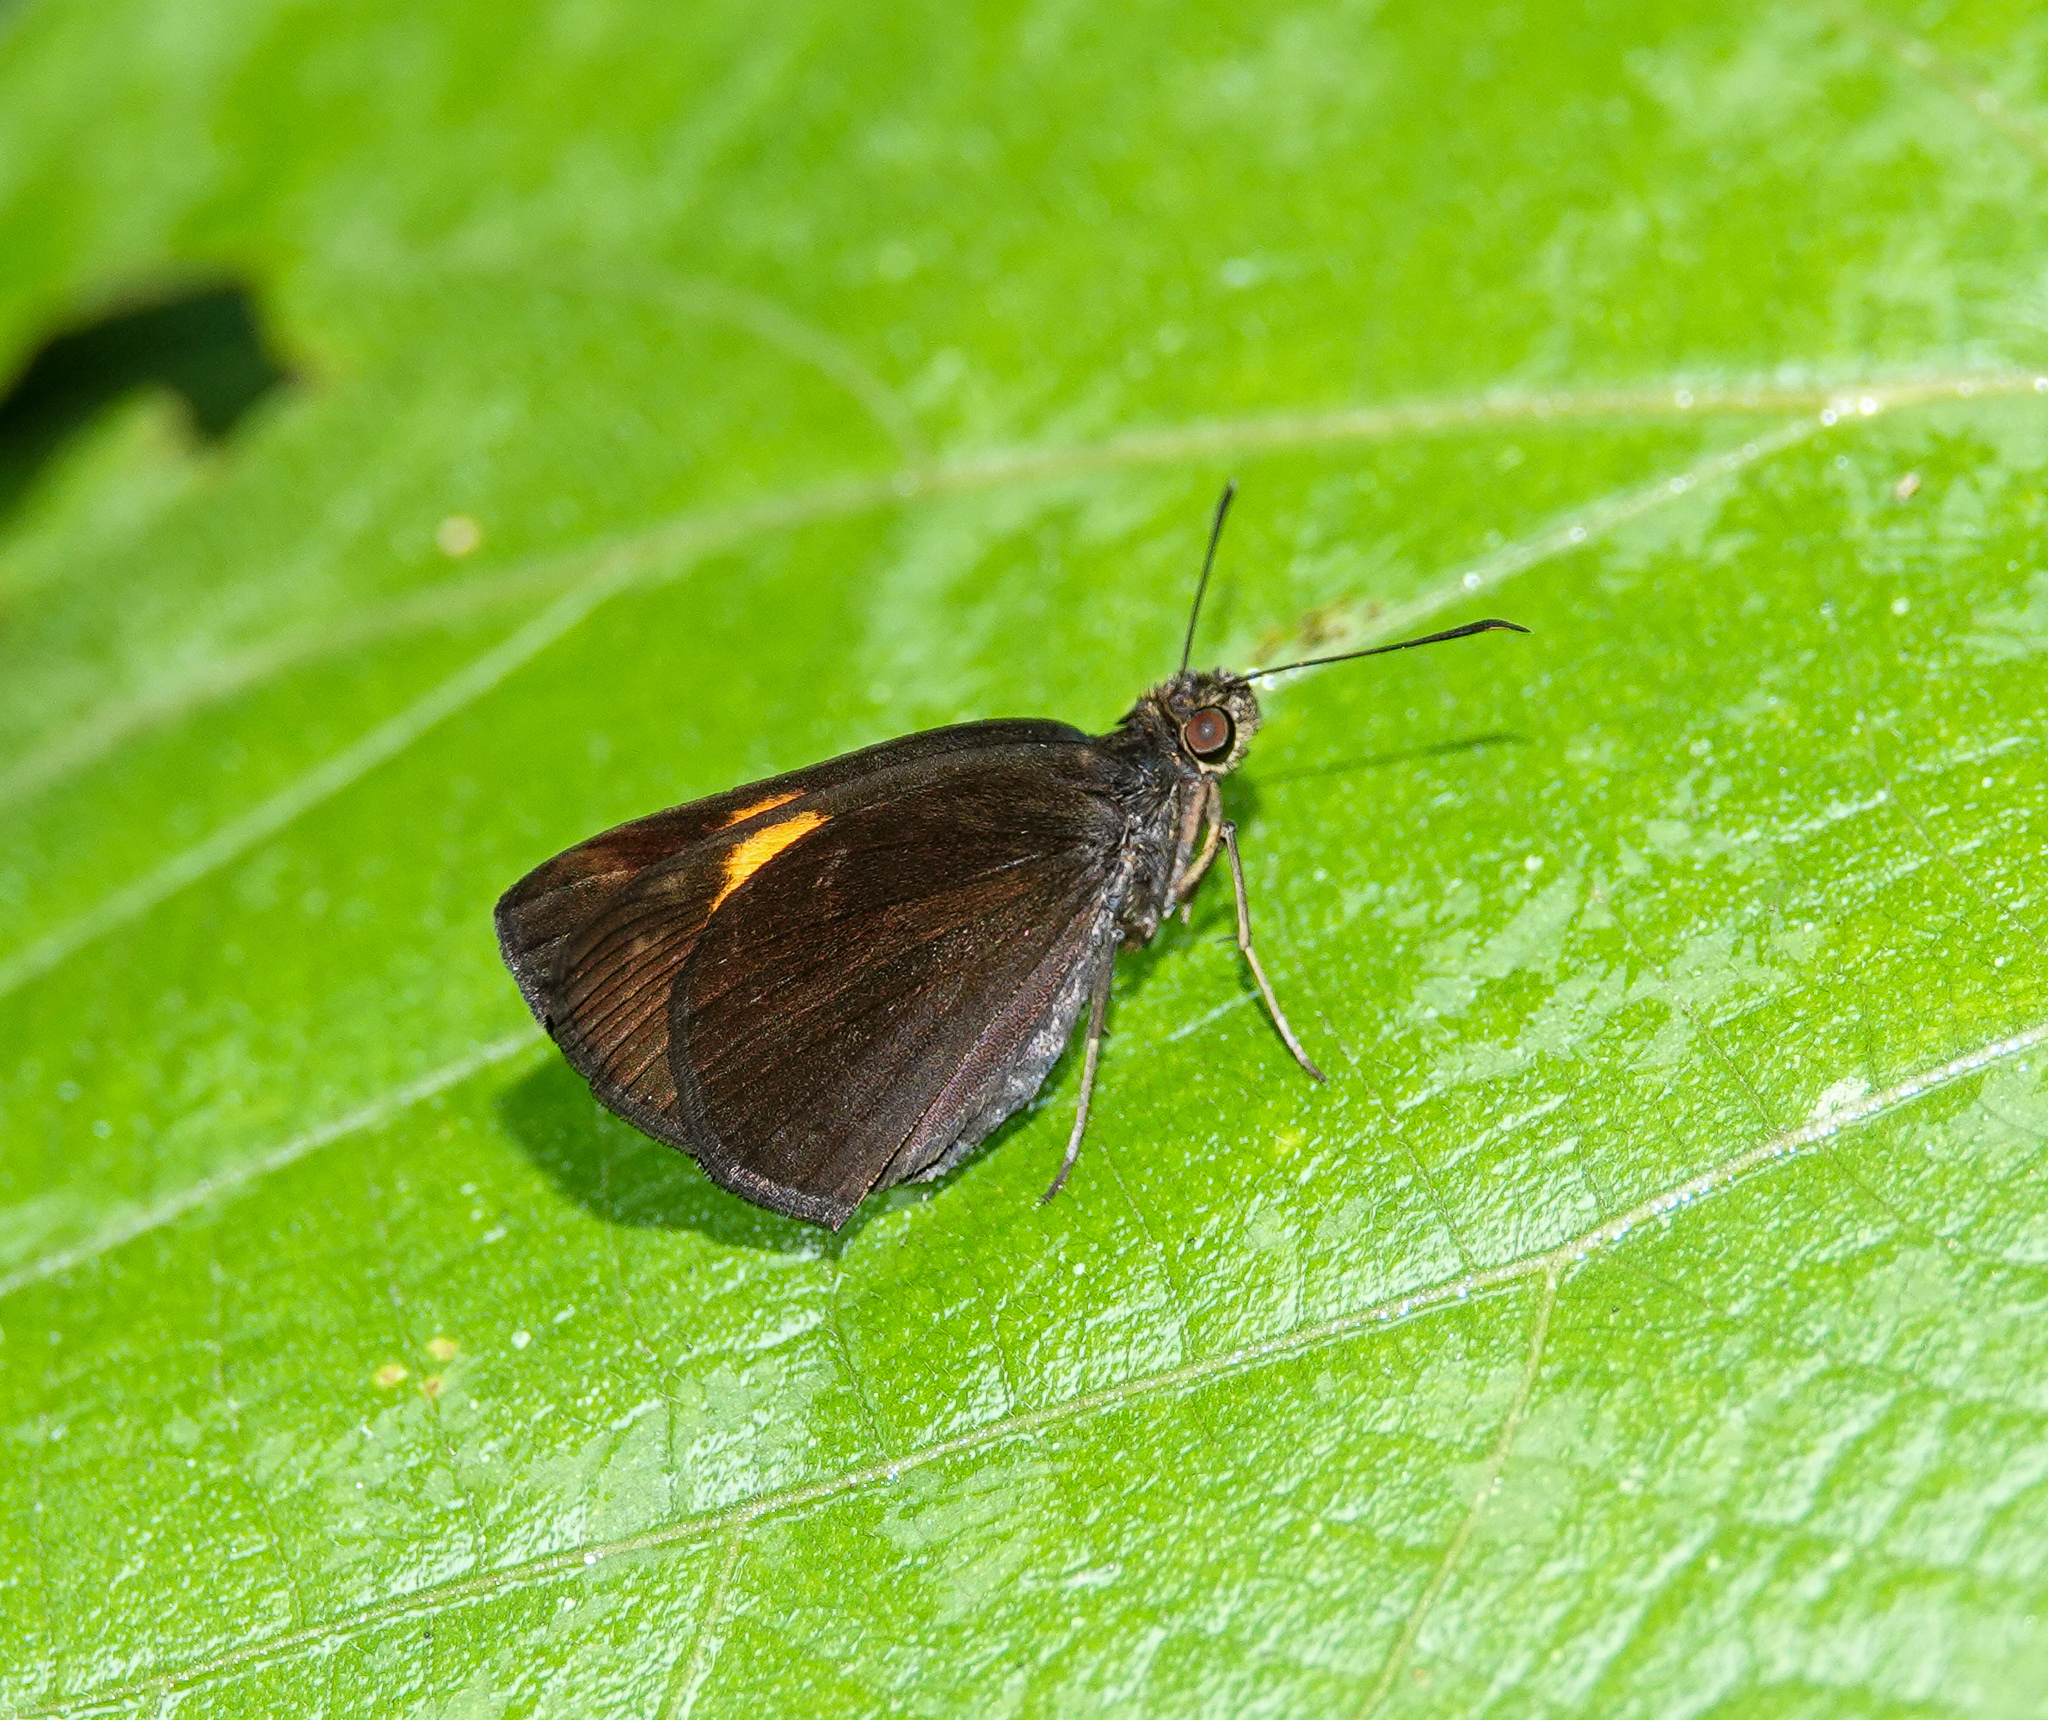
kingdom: Animalia
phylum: Arthropoda
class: Insecta
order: Lepidoptera
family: Hesperiidae
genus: Koruthaialos
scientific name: Koruthaialos sindu
